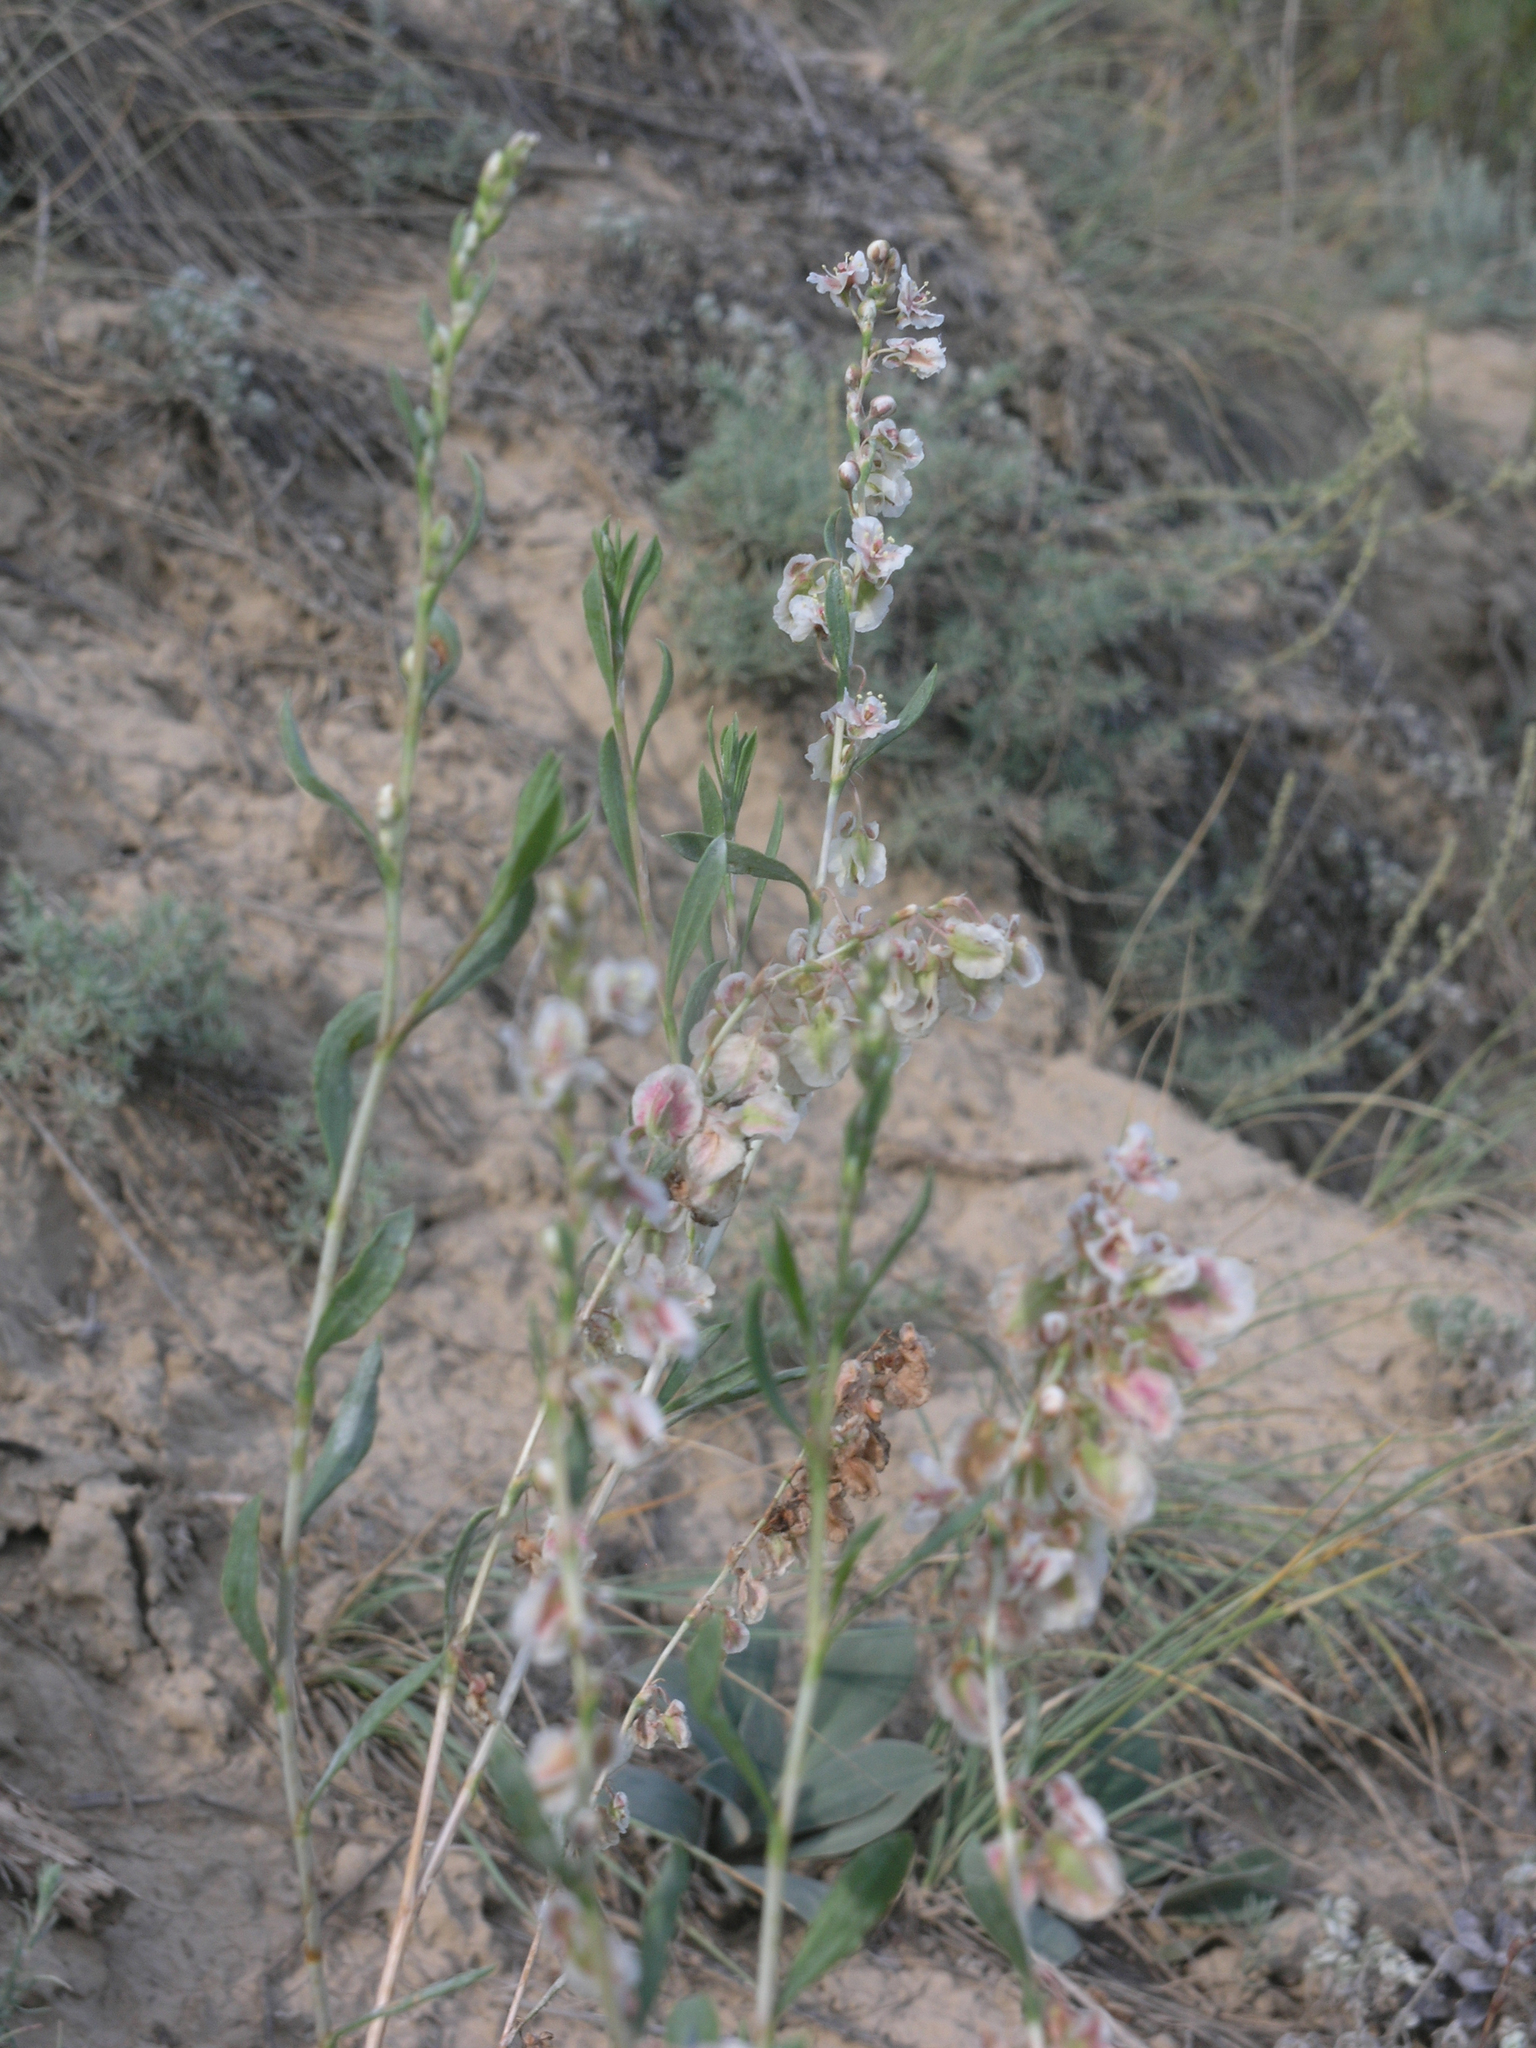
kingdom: Plantae
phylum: Tracheophyta
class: Magnoliopsida
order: Caryophyllales
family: Polygonaceae
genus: Atraphaxis
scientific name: Atraphaxis frutescens
